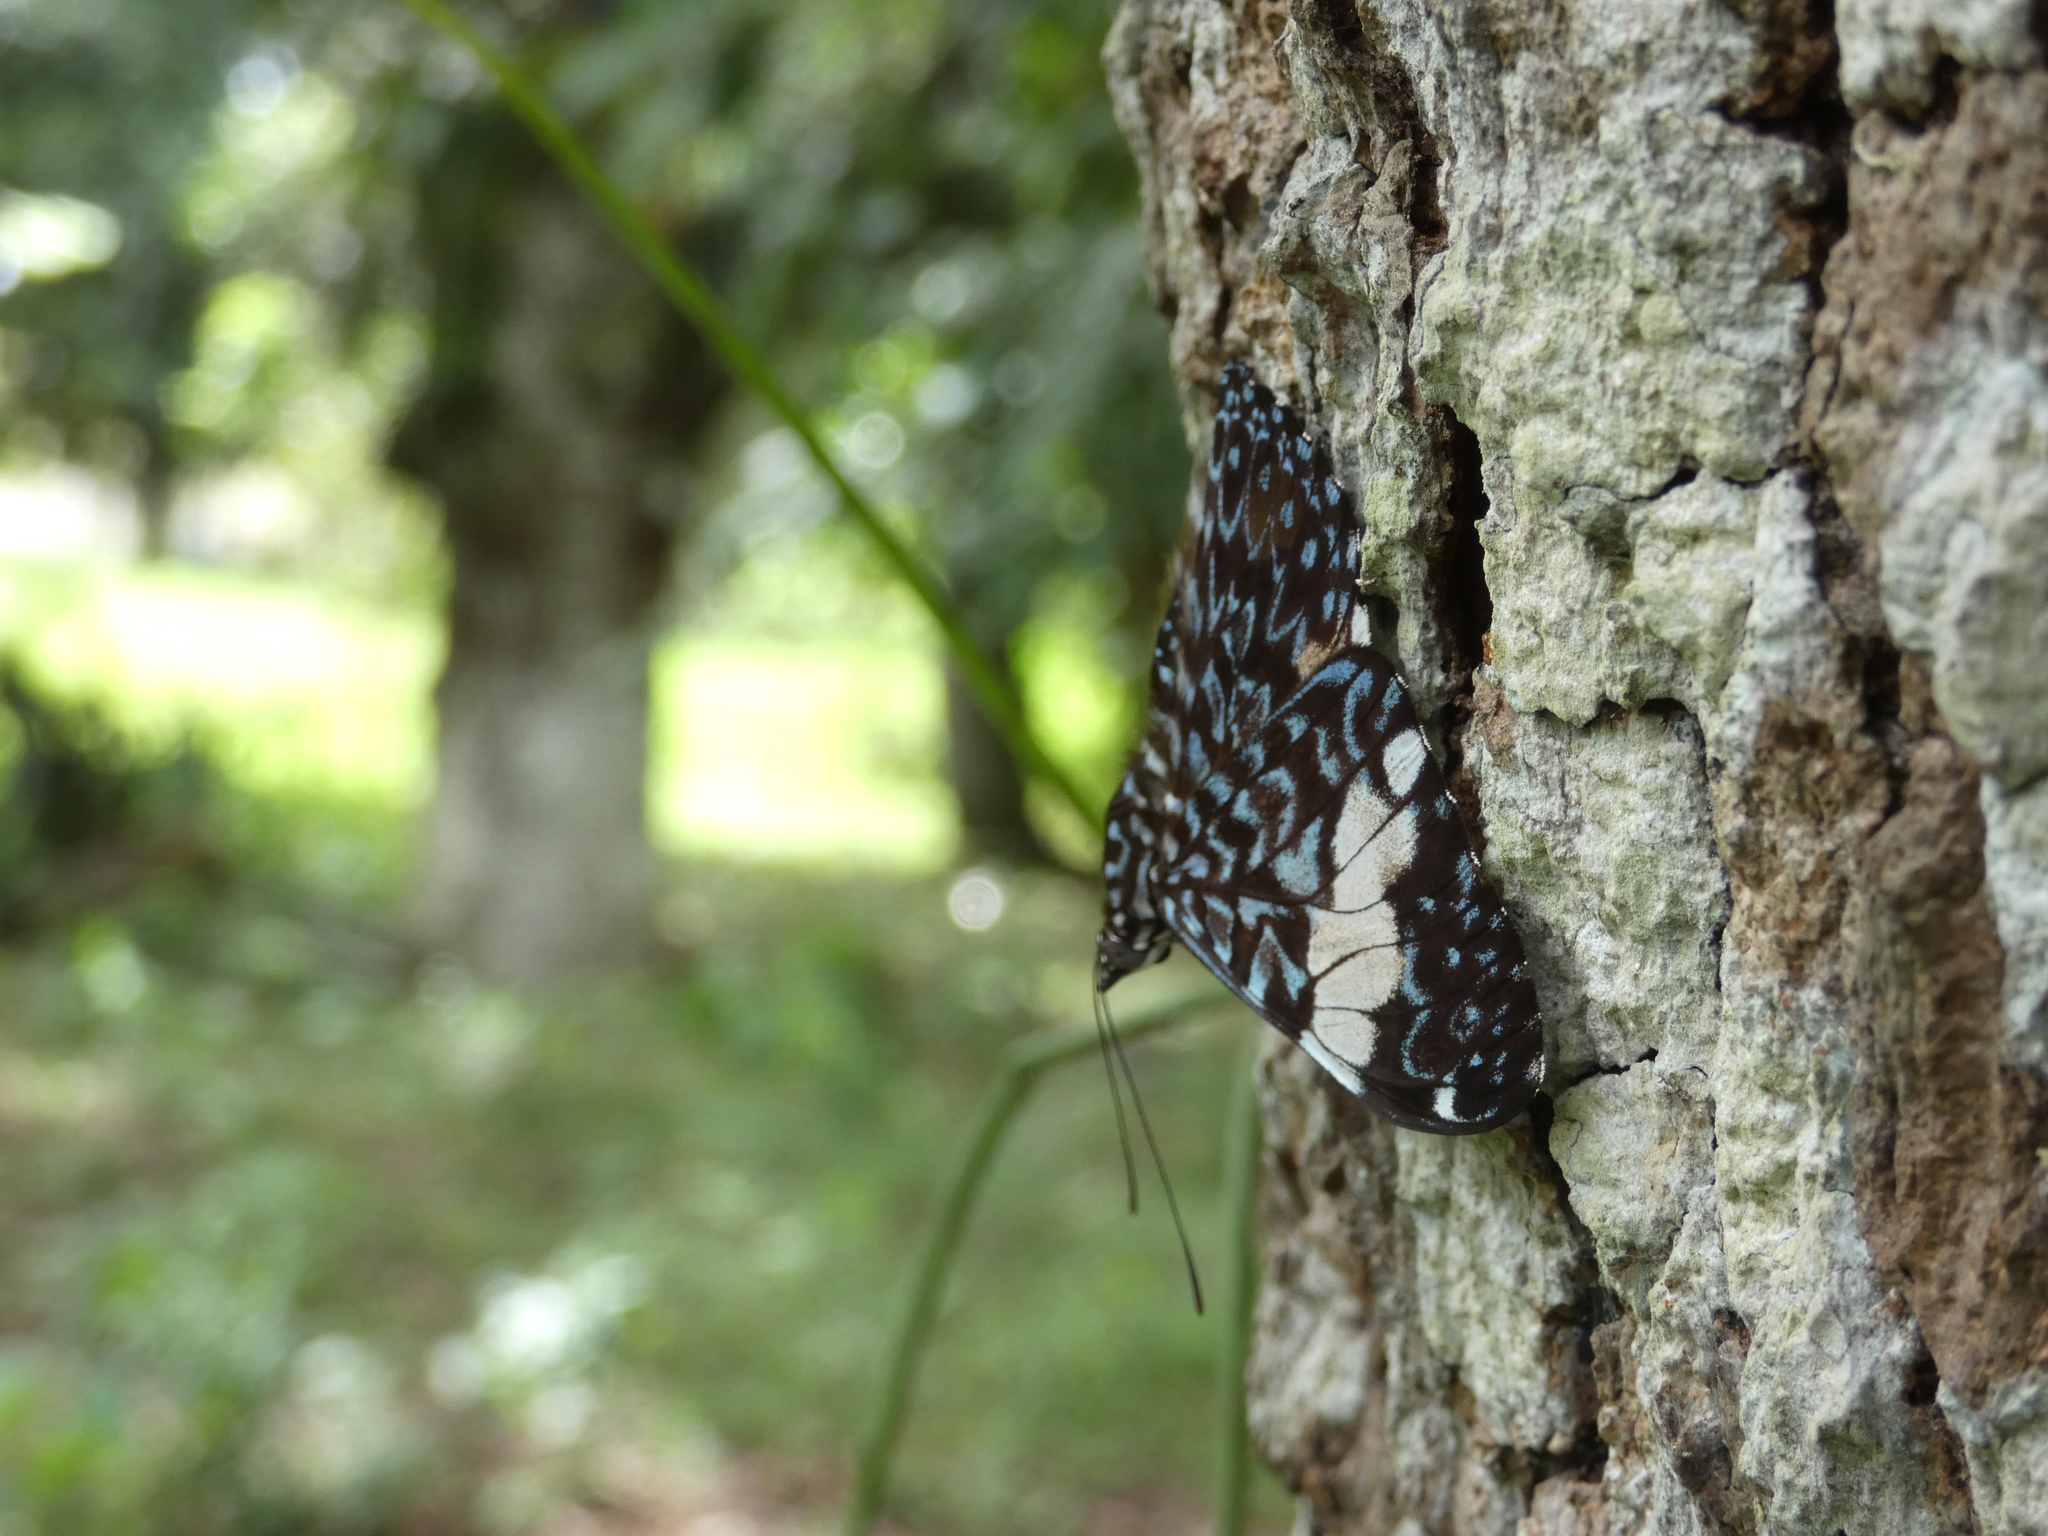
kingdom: Animalia
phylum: Arthropoda
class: Insecta
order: Lepidoptera
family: Nymphalidae
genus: Hamadryas
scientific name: Hamadryas amphinome
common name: Red cracker
